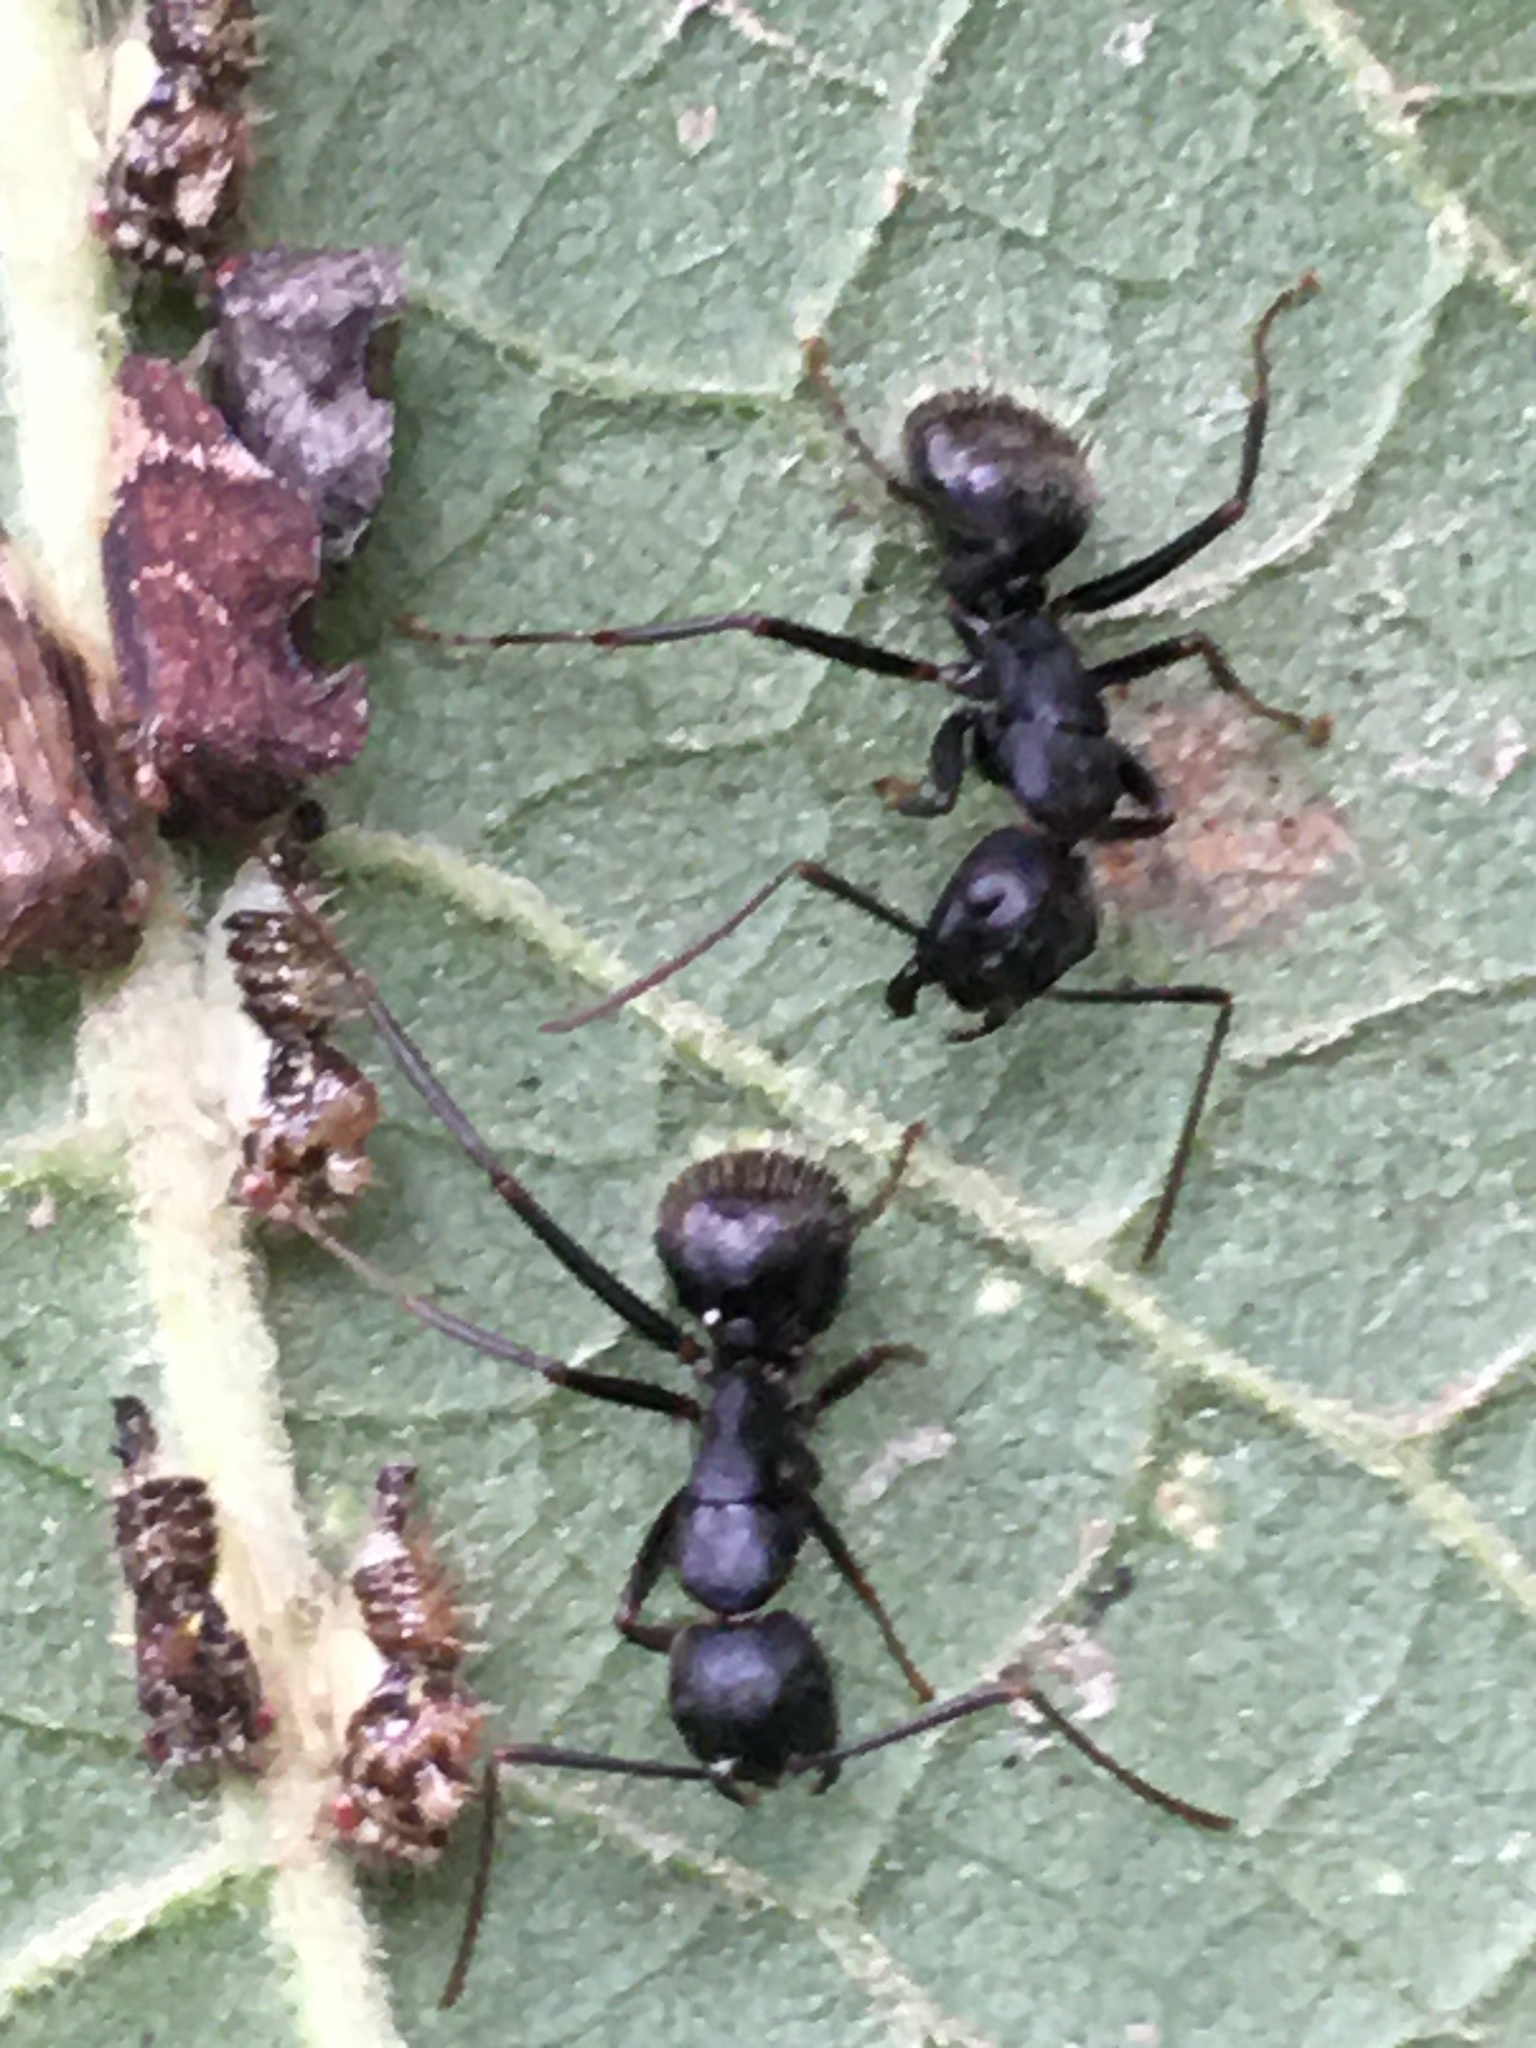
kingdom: Animalia
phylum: Arthropoda
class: Insecta
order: Hymenoptera
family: Formicidae
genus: Camponotus
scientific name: Camponotus pennsylvanicus
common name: Black carpenter ant
